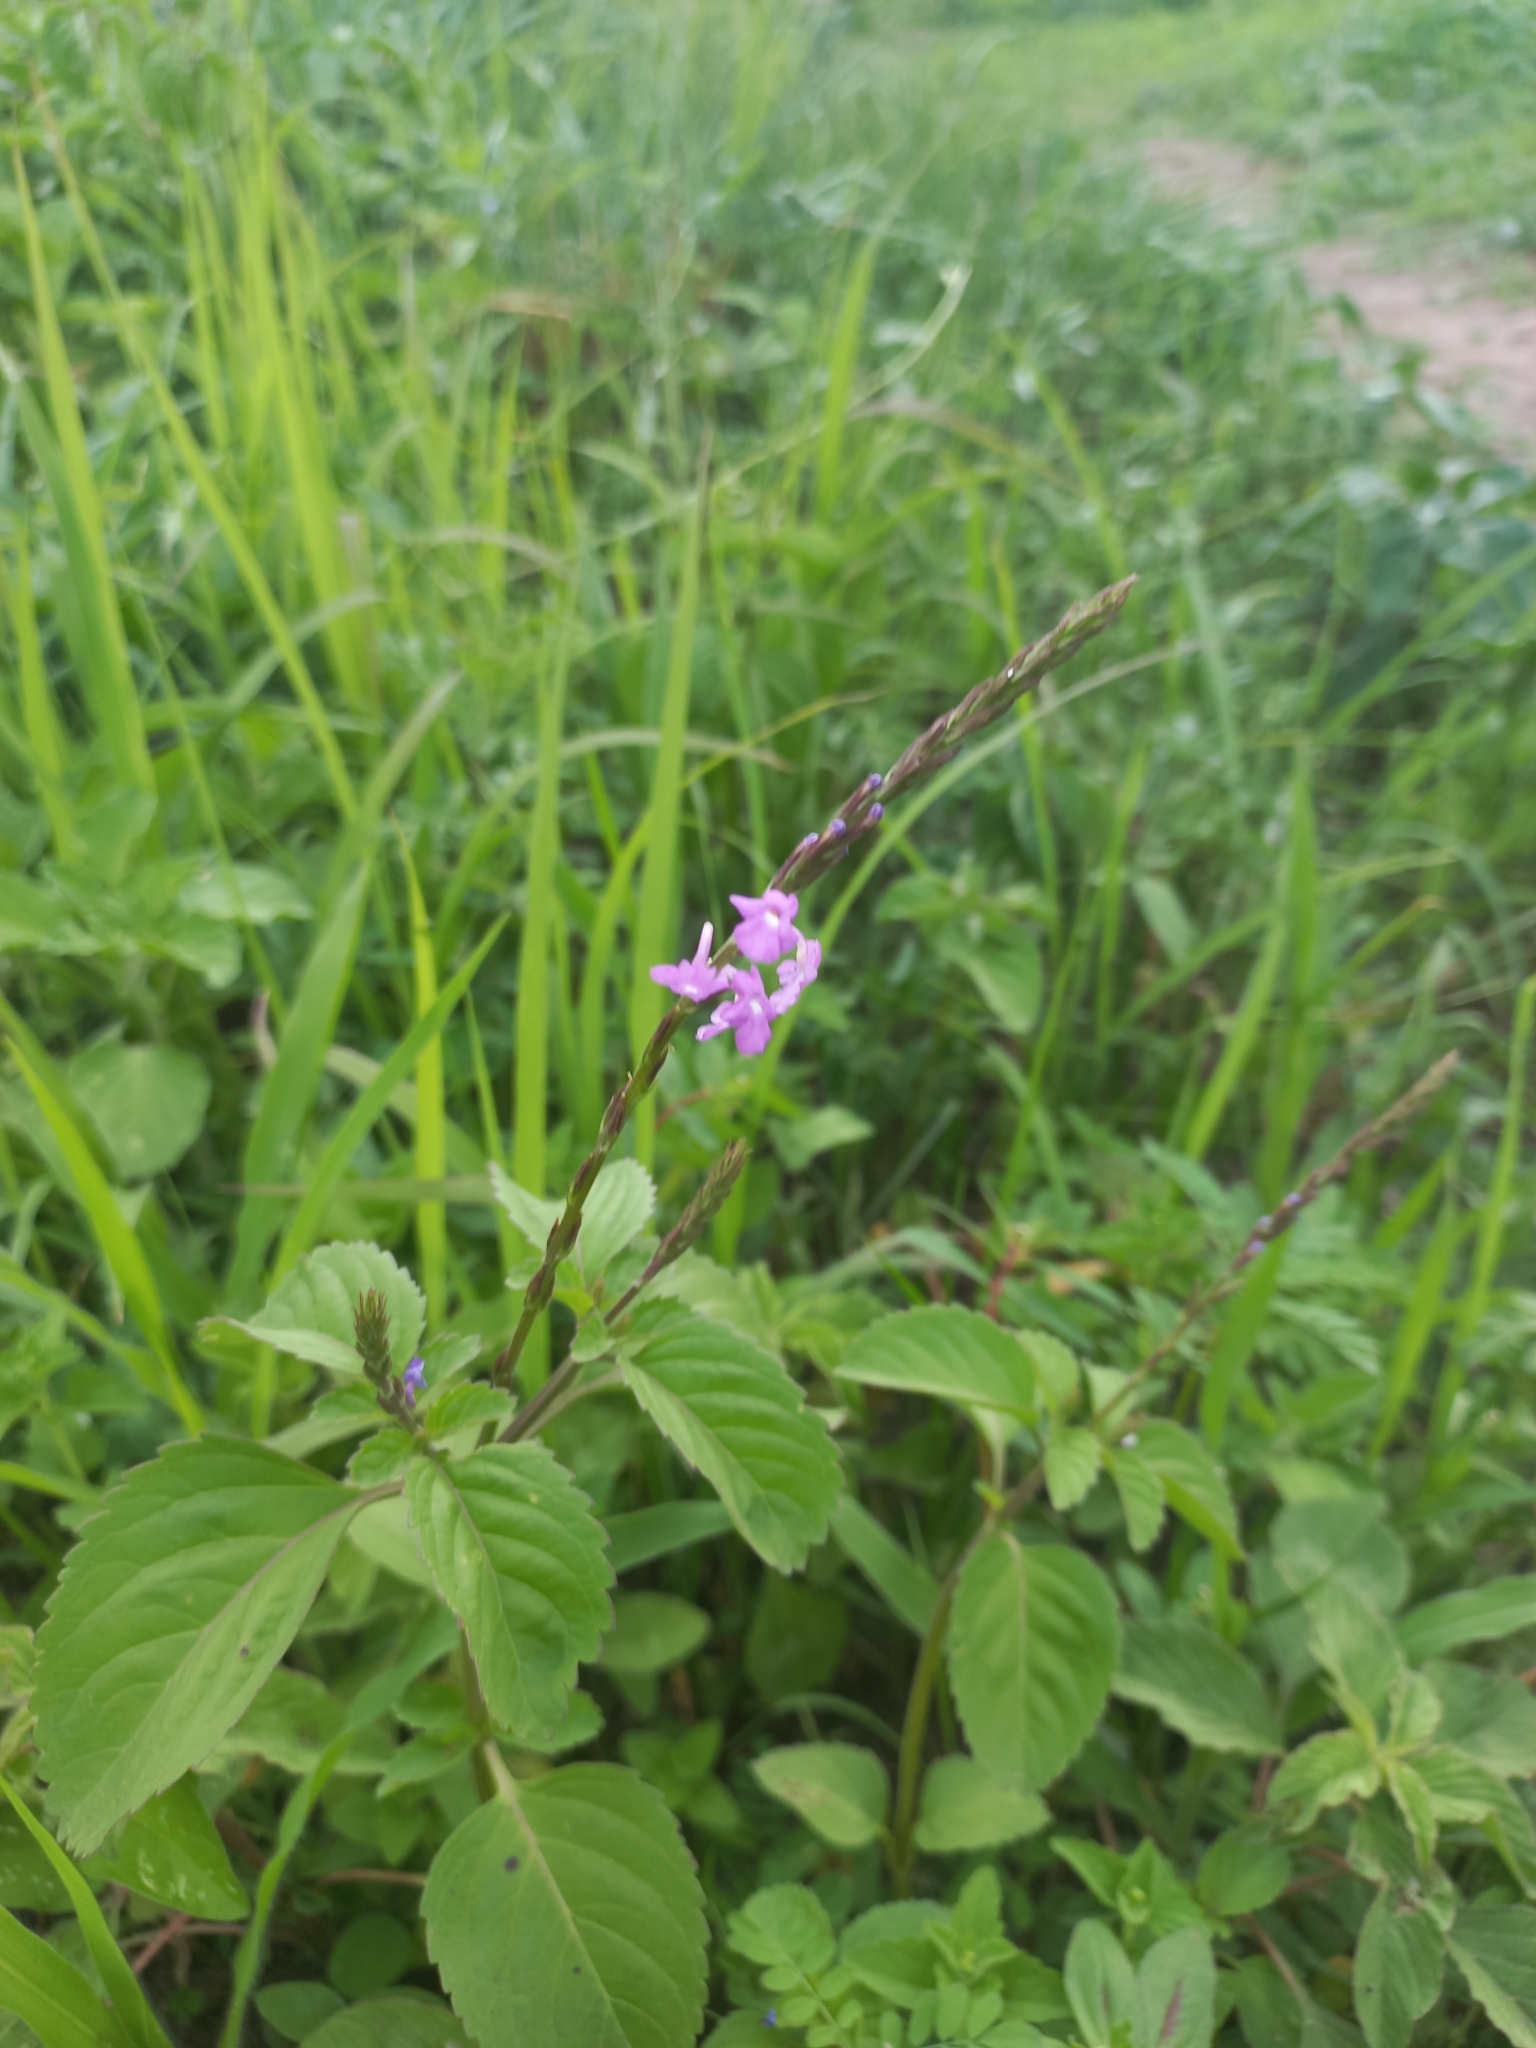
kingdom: Plantae
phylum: Tracheophyta
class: Magnoliopsida
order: Lamiales
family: Verbenaceae
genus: Bouchea
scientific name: Bouchea prismatica
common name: Vervine
